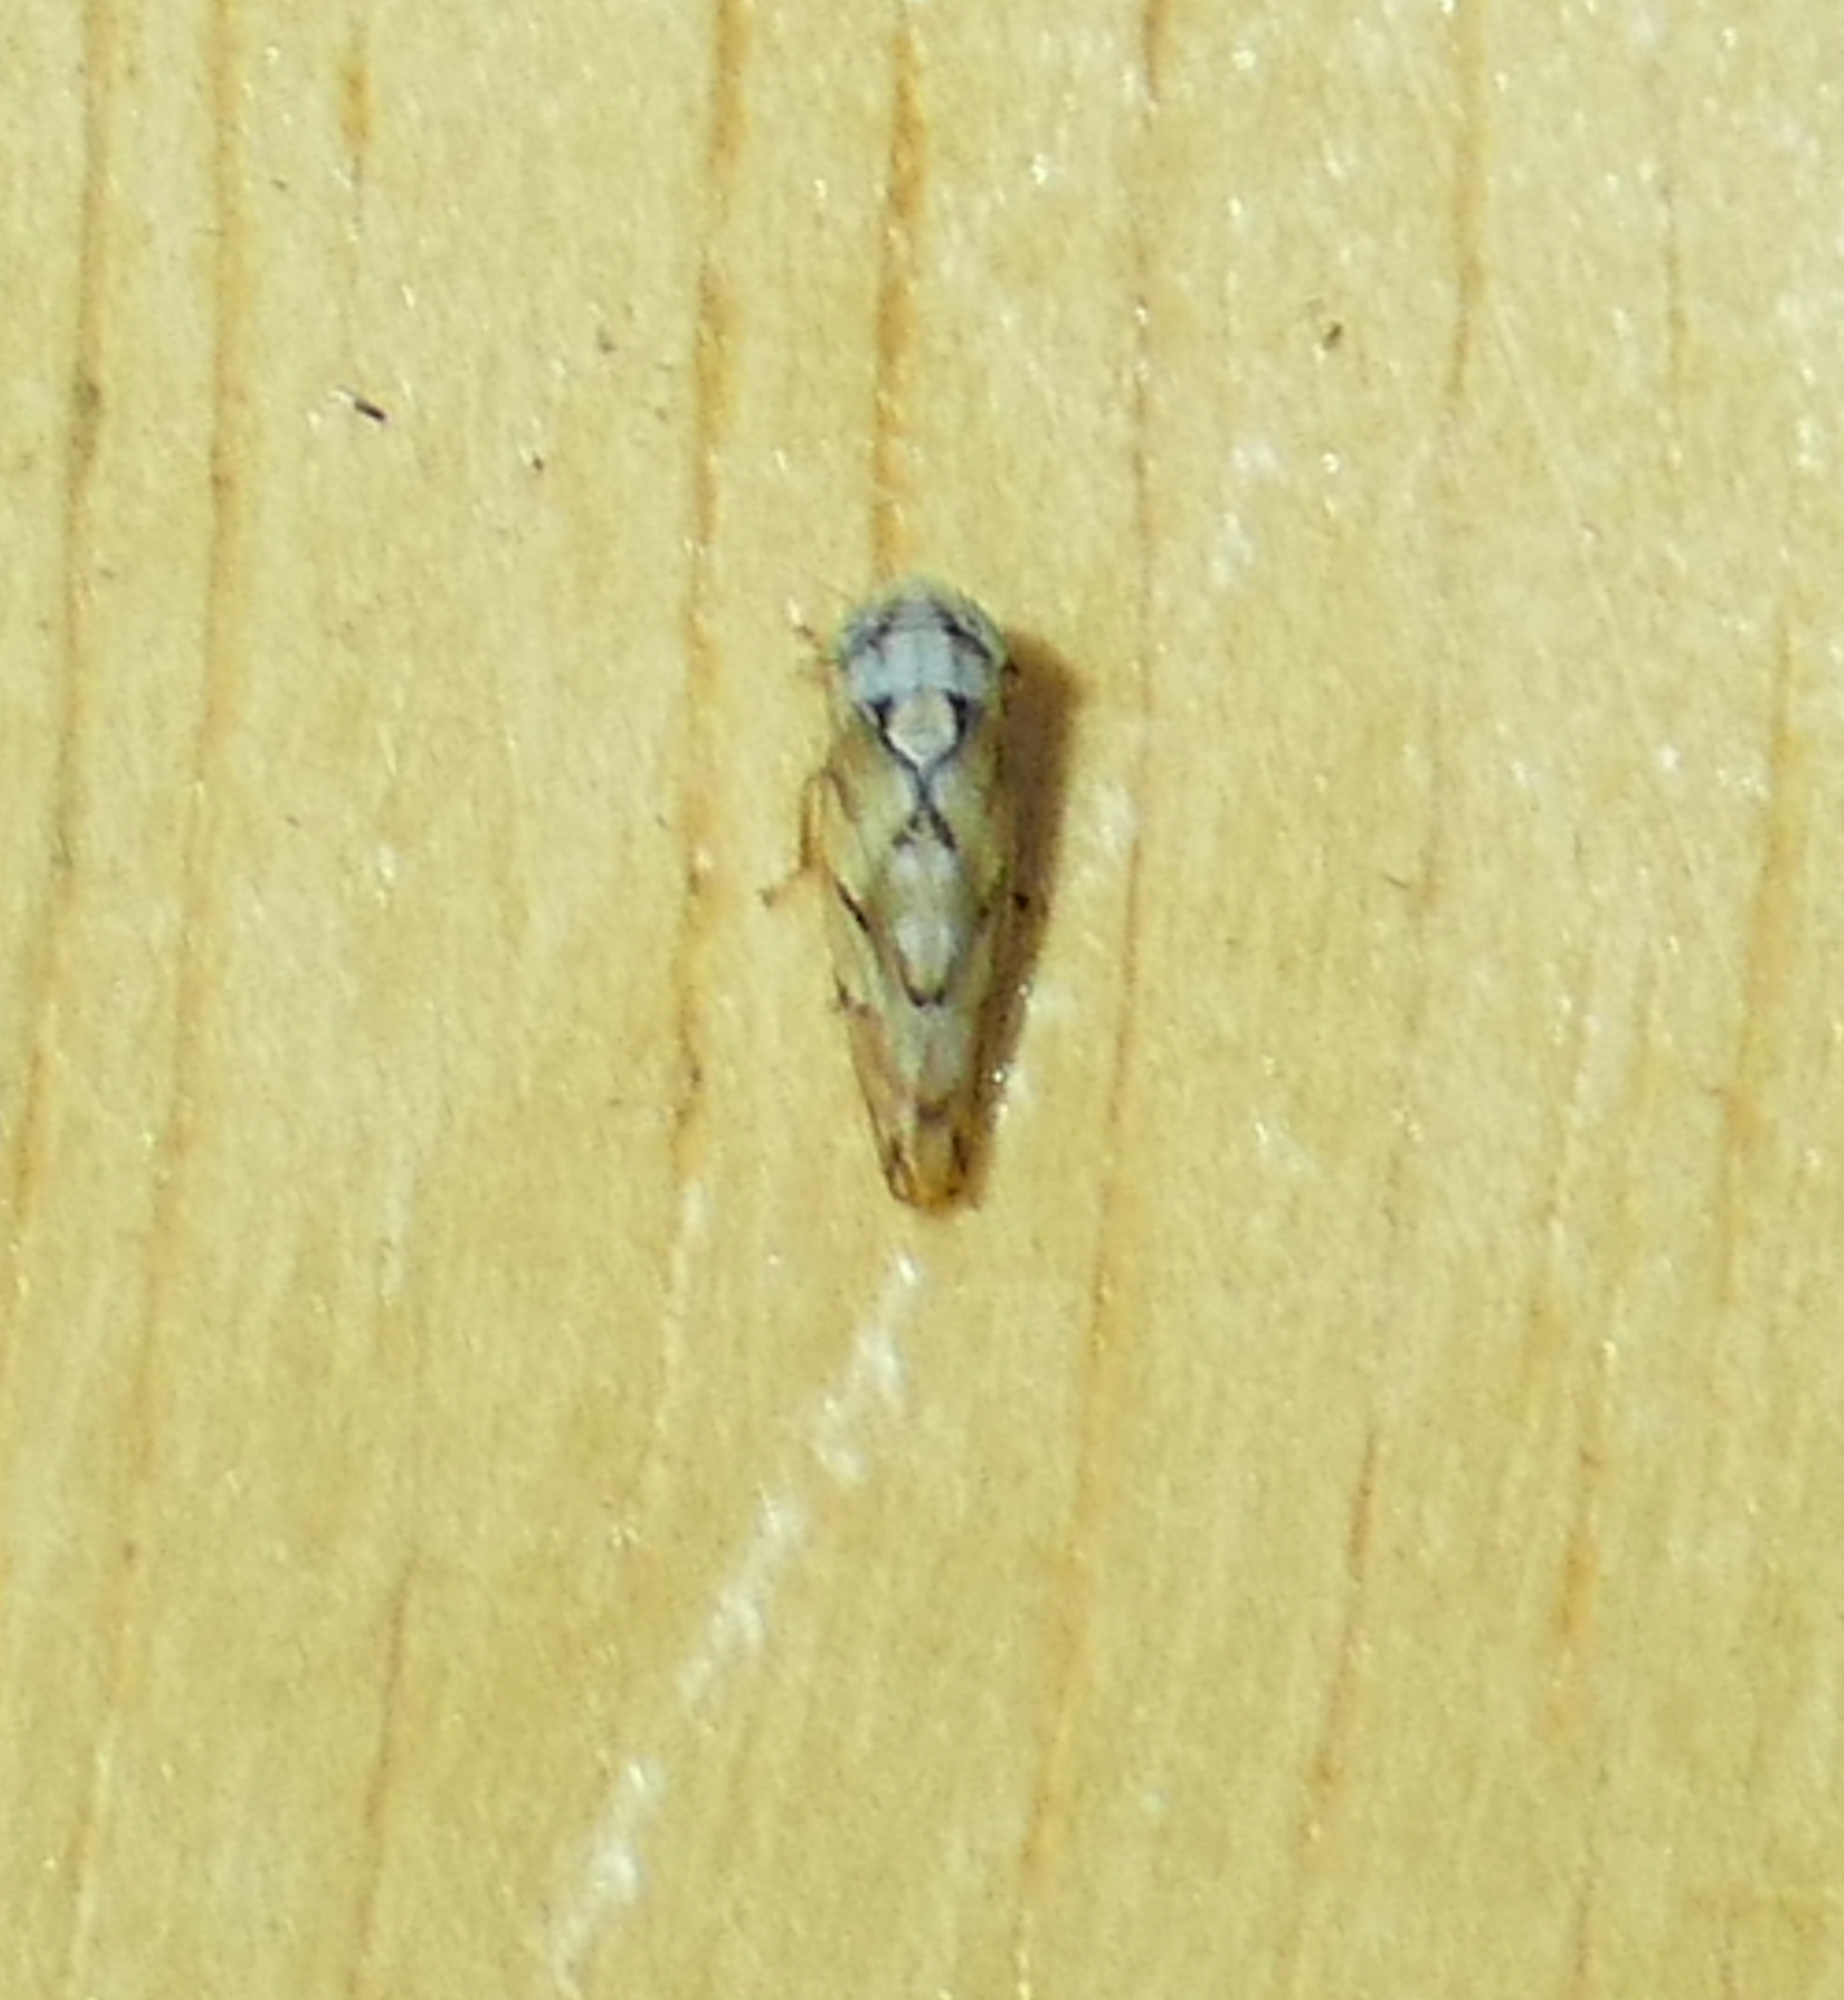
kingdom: Animalia
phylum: Arthropoda
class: Insecta
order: Hemiptera
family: Cicadellidae
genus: Norvellina
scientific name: Norvellina mildredae
